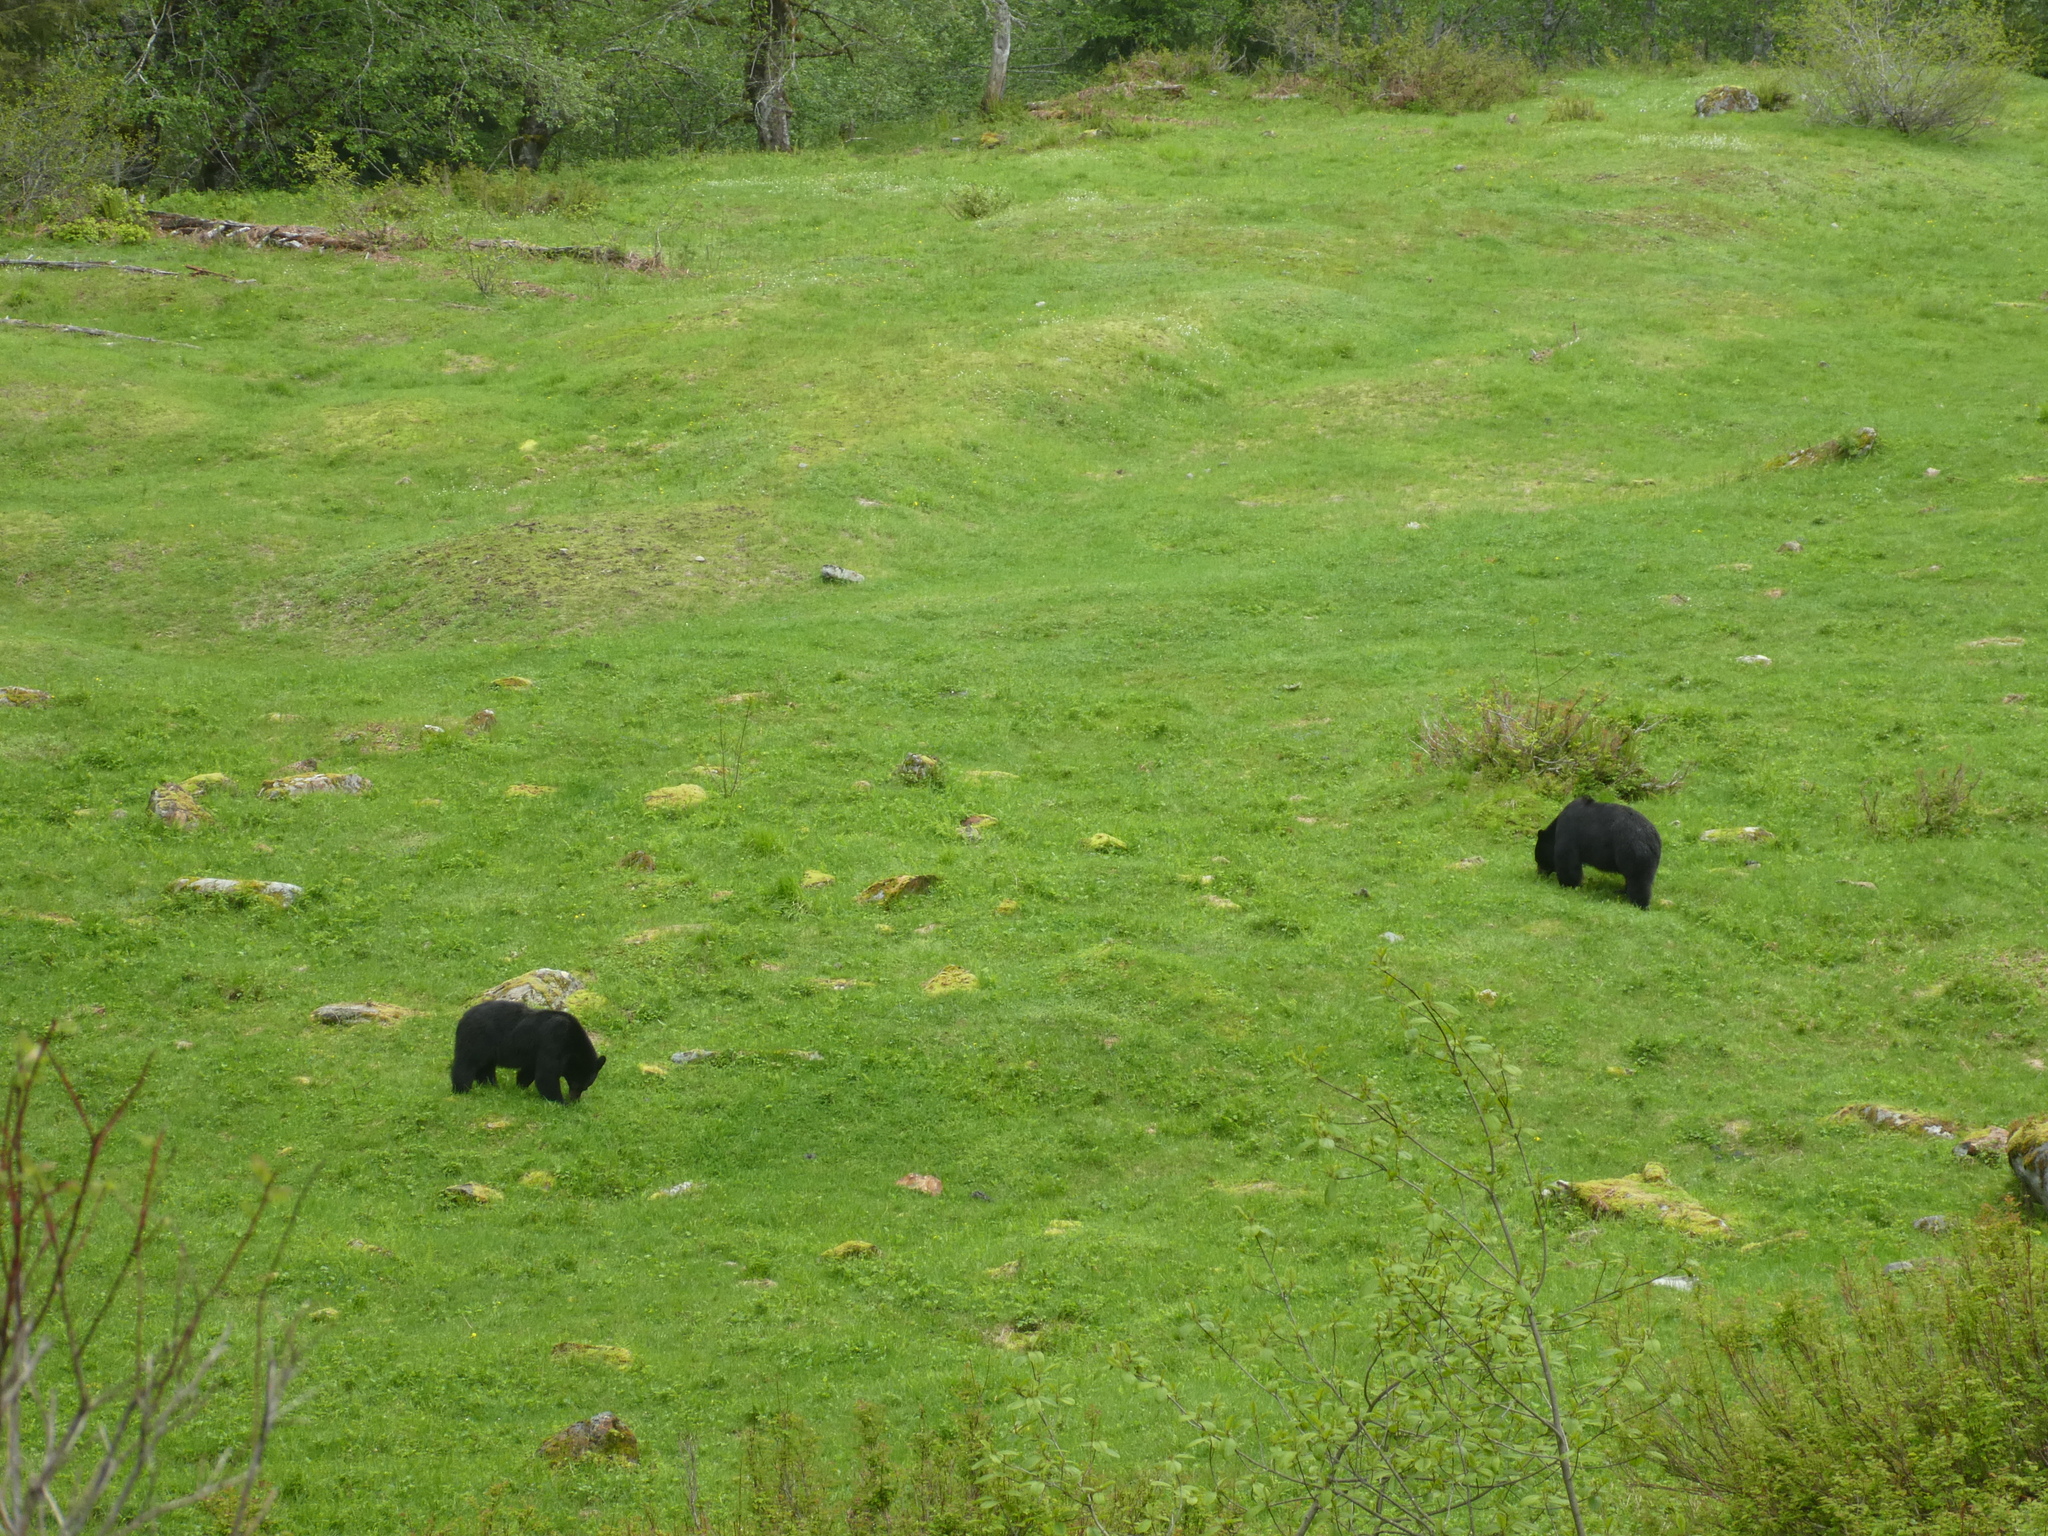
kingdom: Animalia
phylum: Chordata
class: Mammalia
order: Carnivora
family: Ursidae
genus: Ursus
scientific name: Ursus americanus
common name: American black bear
